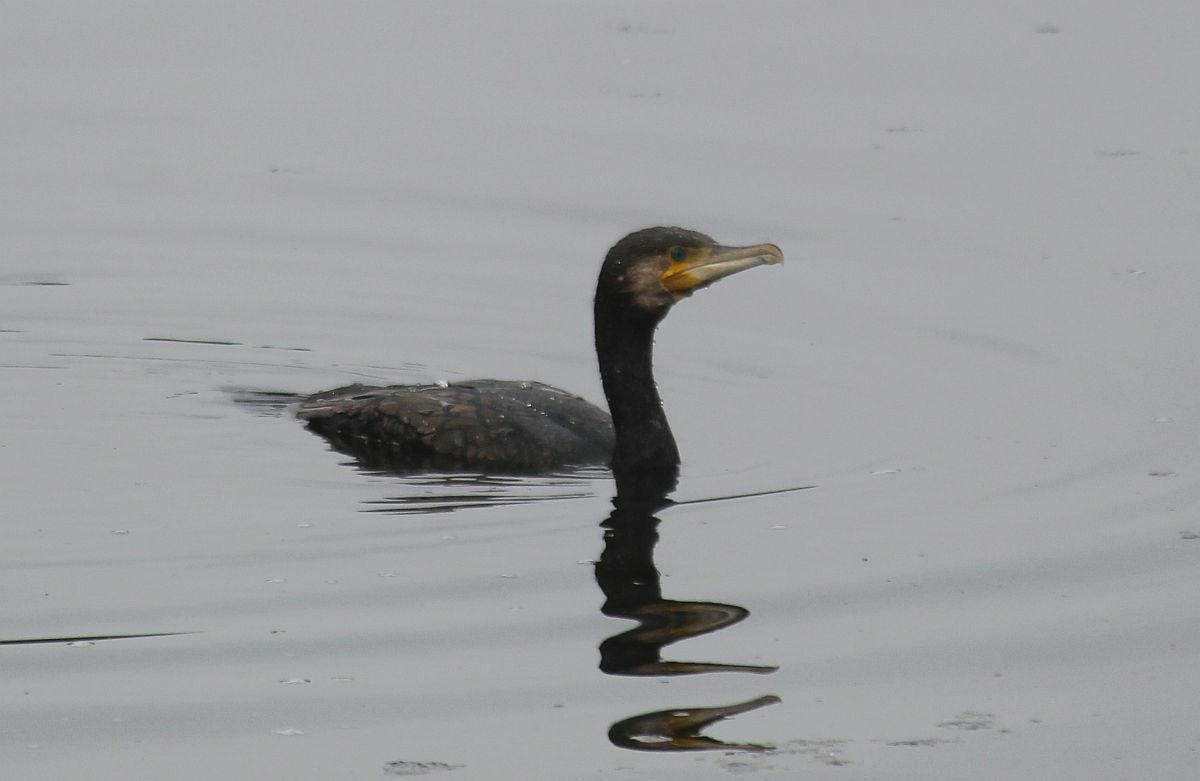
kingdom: Animalia
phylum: Chordata
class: Aves
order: Suliformes
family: Phalacrocoracidae
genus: Phalacrocorax
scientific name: Phalacrocorax carbo
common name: Great cormorant
